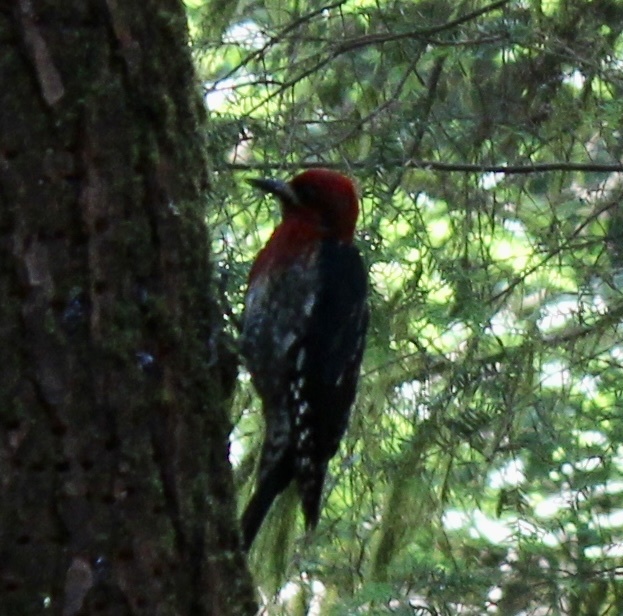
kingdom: Animalia
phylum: Chordata
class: Aves
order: Piciformes
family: Picidae
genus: Sphyrapicus
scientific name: Sphyrapicus ruber
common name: Red-breasted sapsucker
